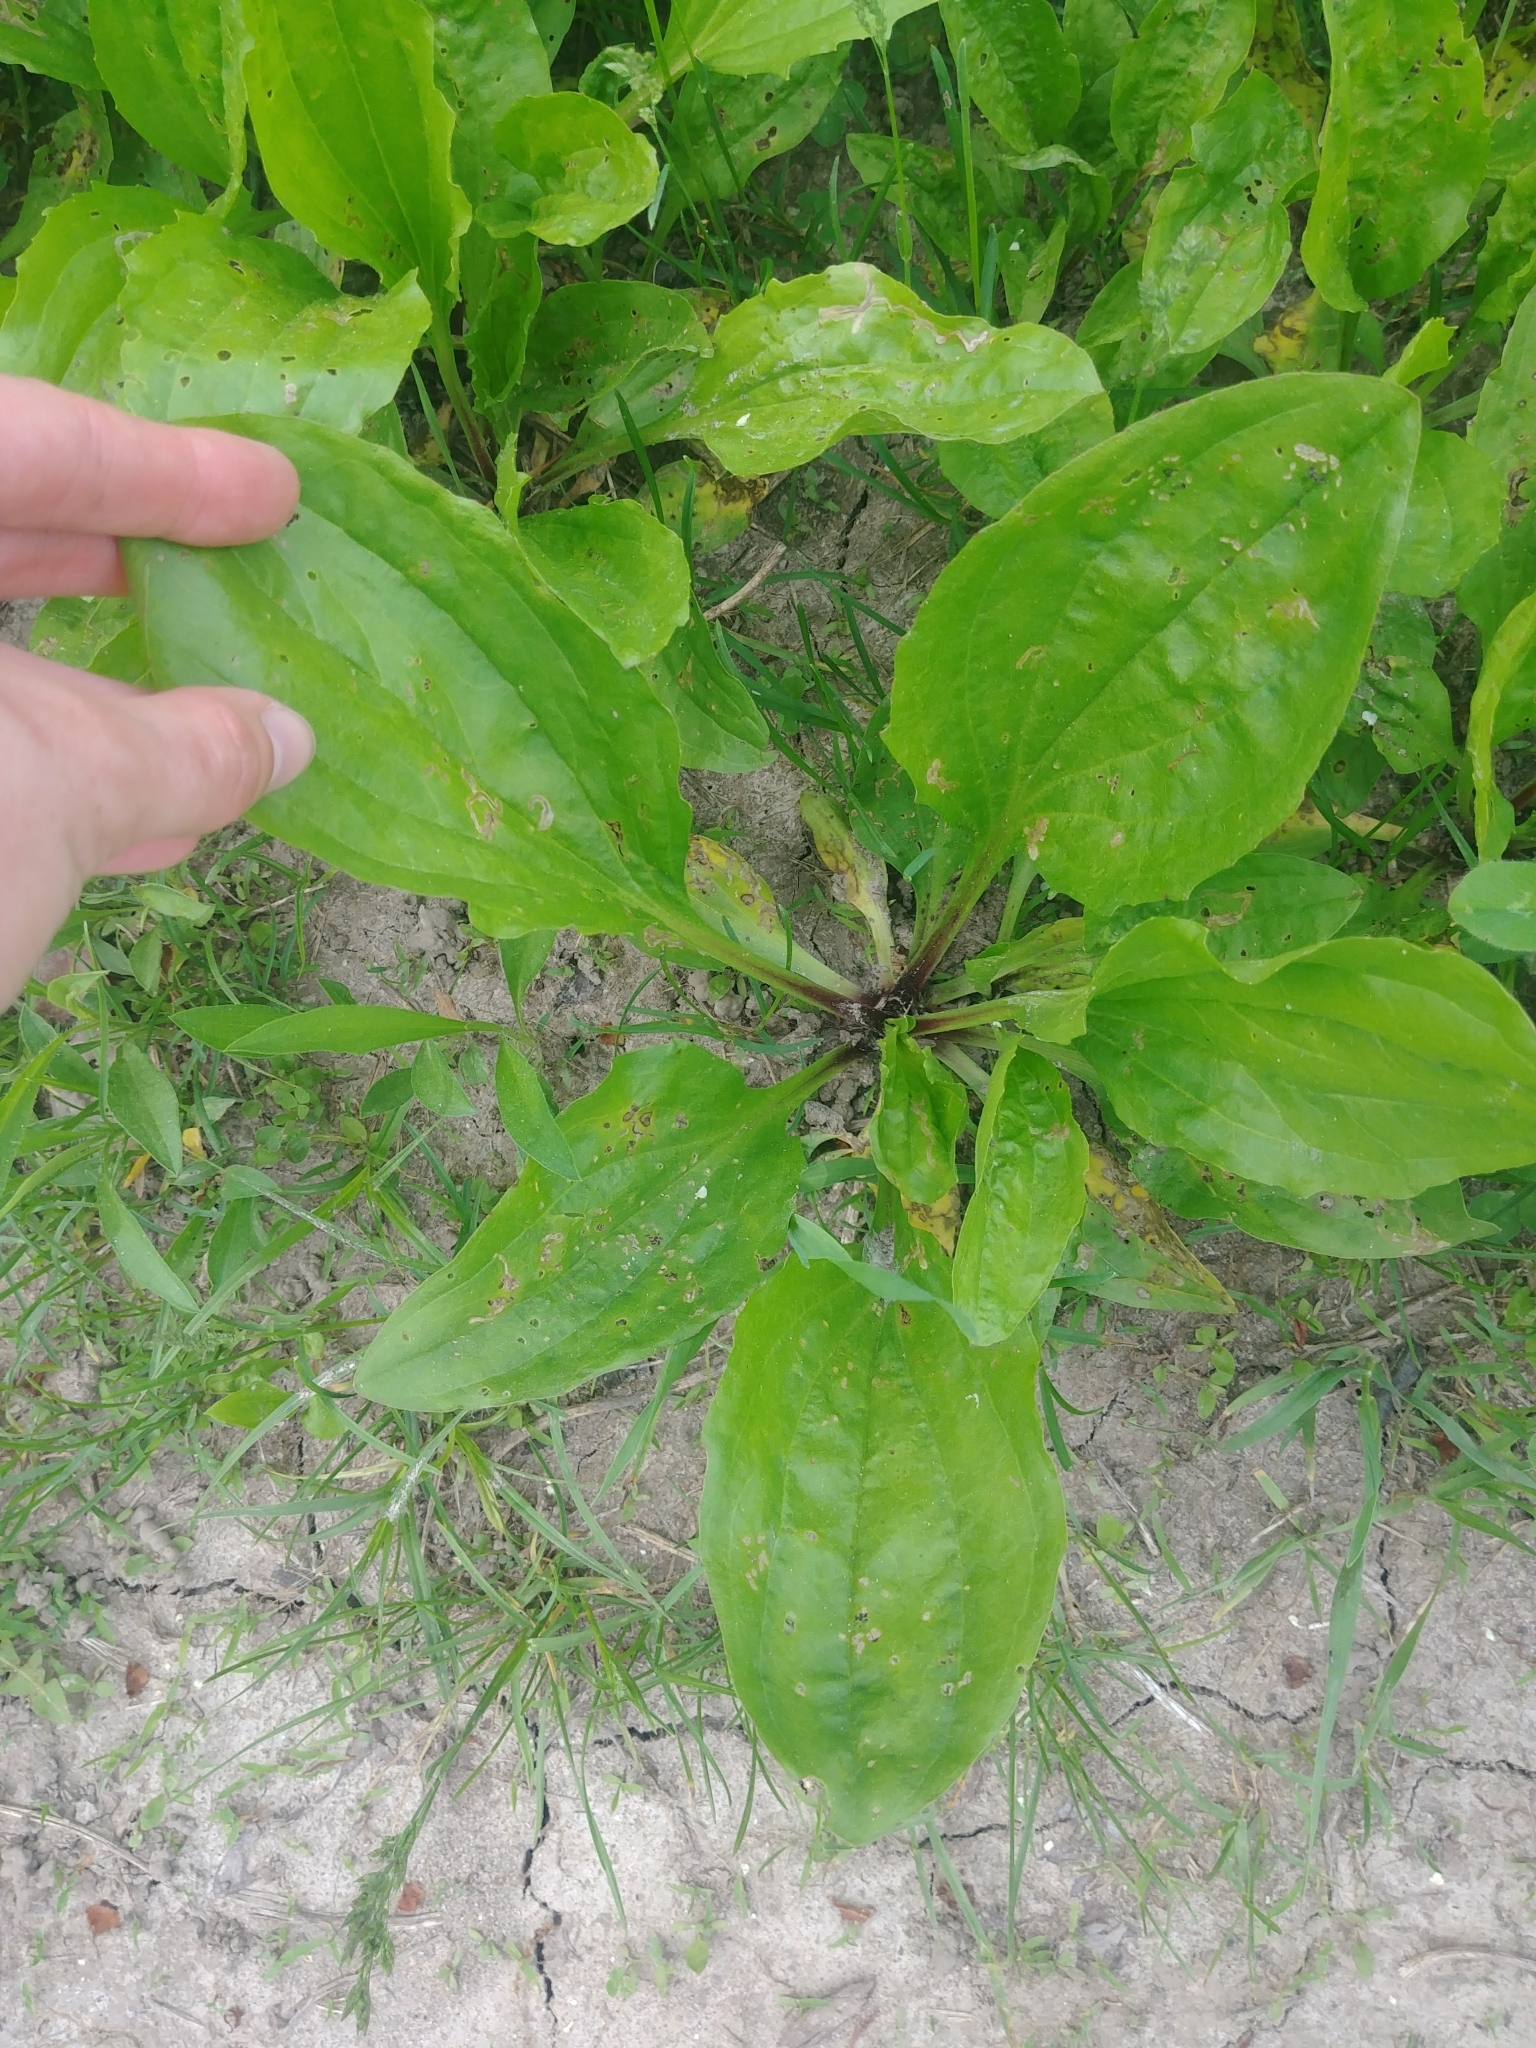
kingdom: Plantae
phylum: Tracheophyta
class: Magnoliopsida
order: Lamiales
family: Plantaginaceae
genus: Plantago
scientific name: Plantago rugelii
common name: American plantain
